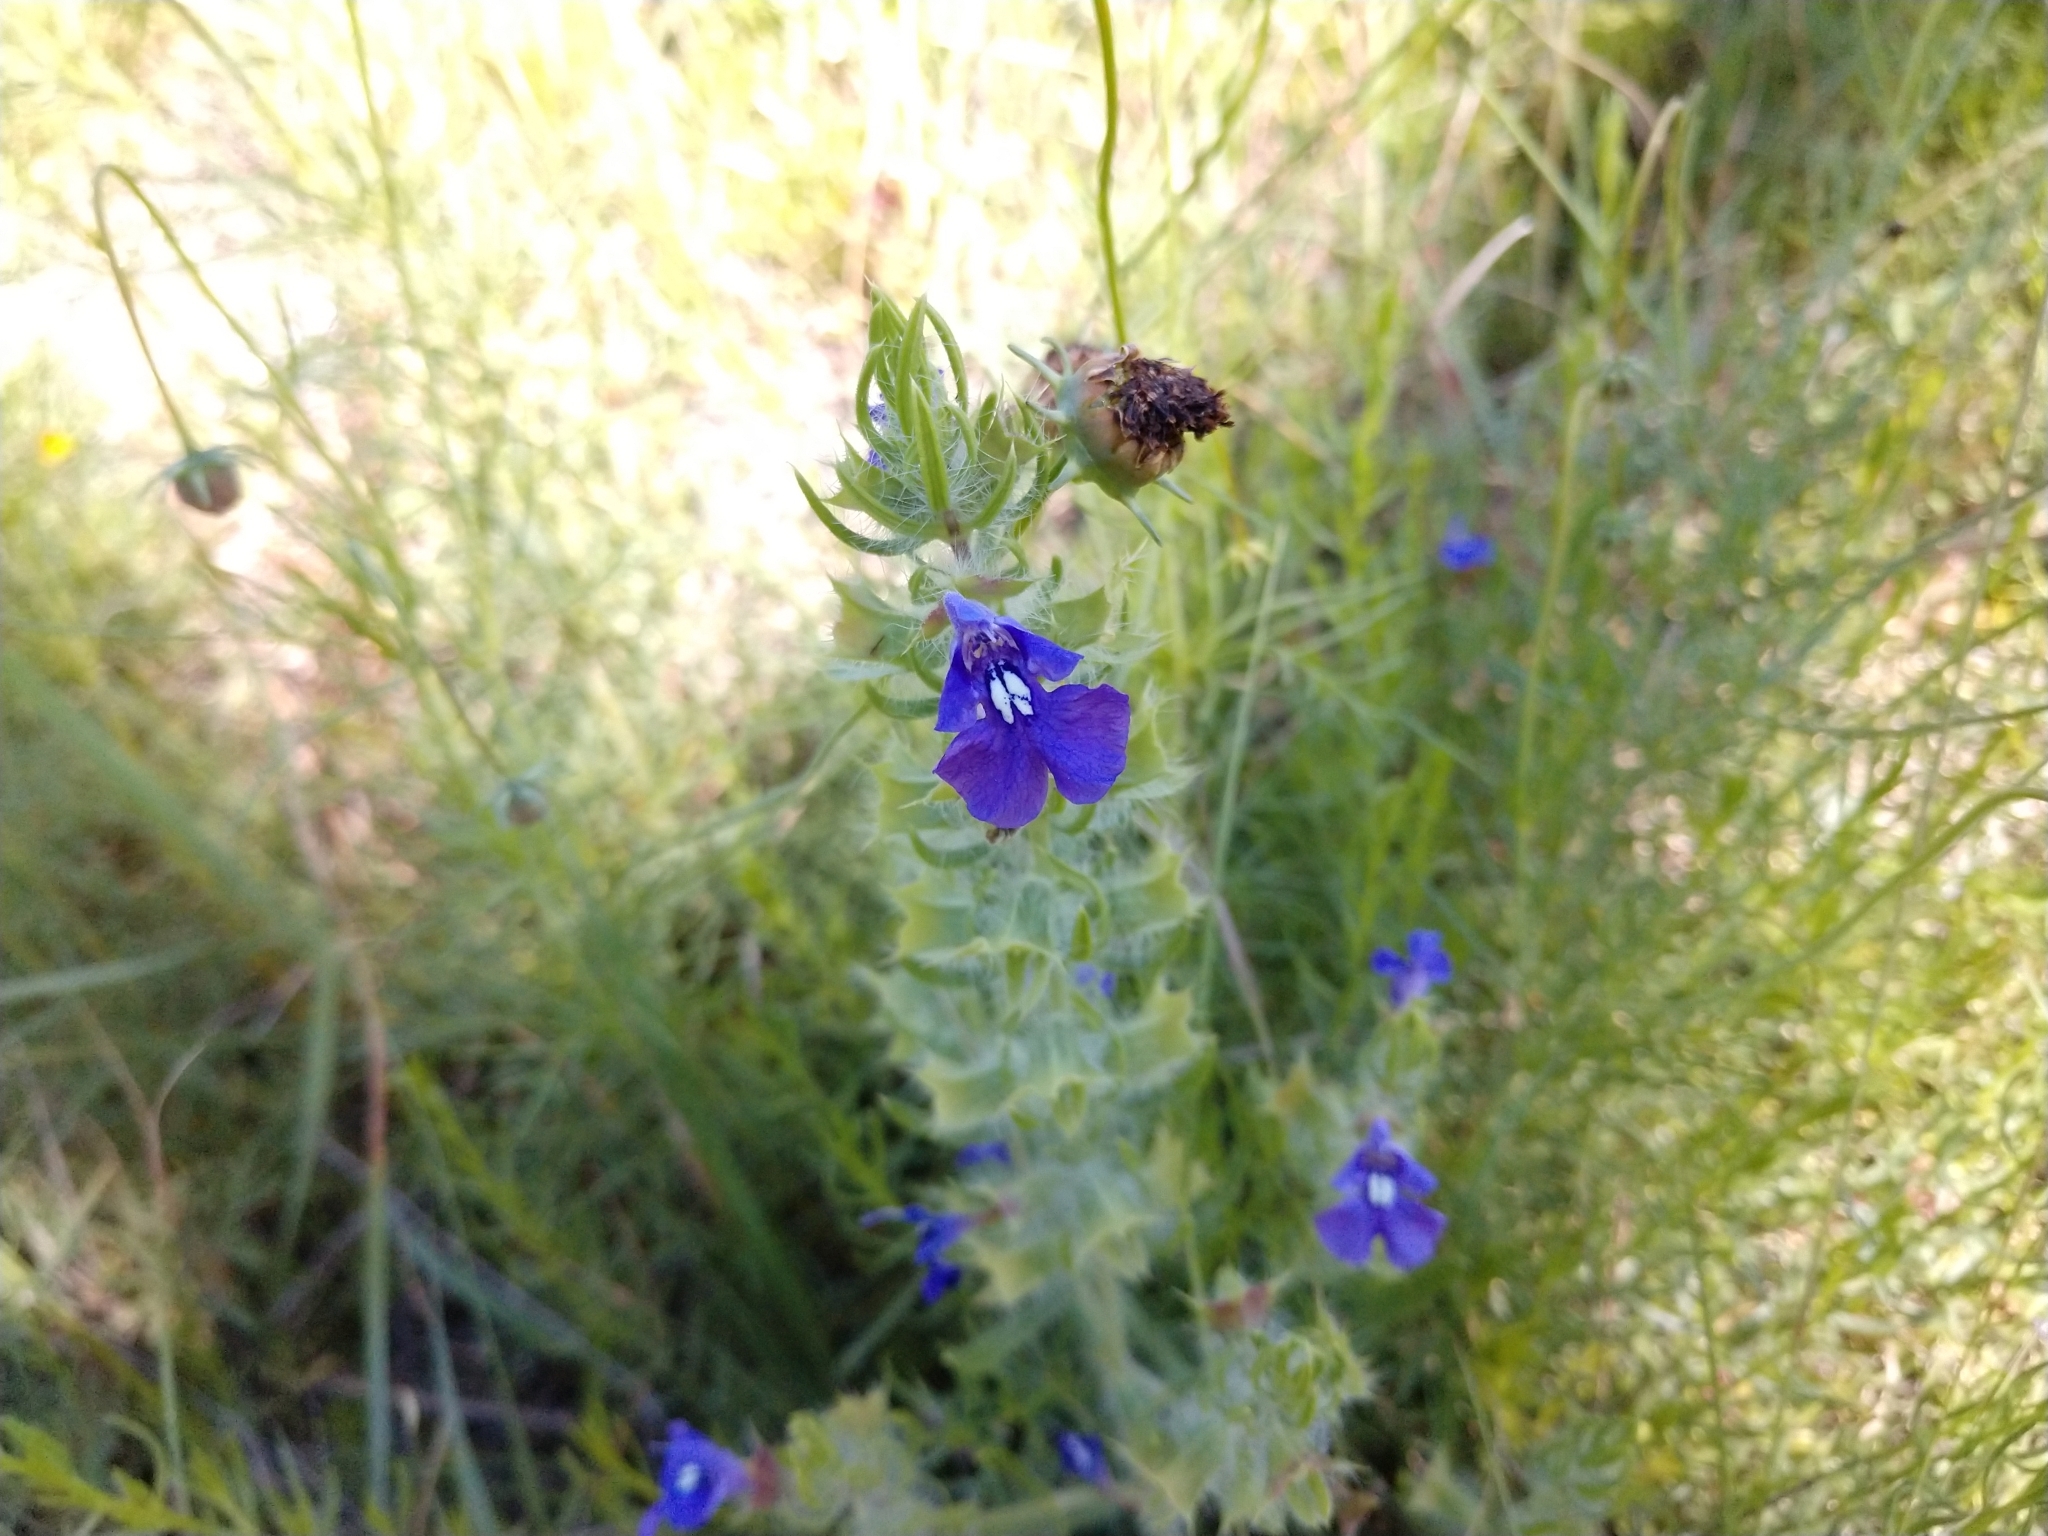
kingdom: Plantae
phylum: Tracheophyta
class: Magnoliopsida
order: Lamiales
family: Lamiaceae
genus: Salvia
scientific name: Salvia texana
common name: Texas sage
